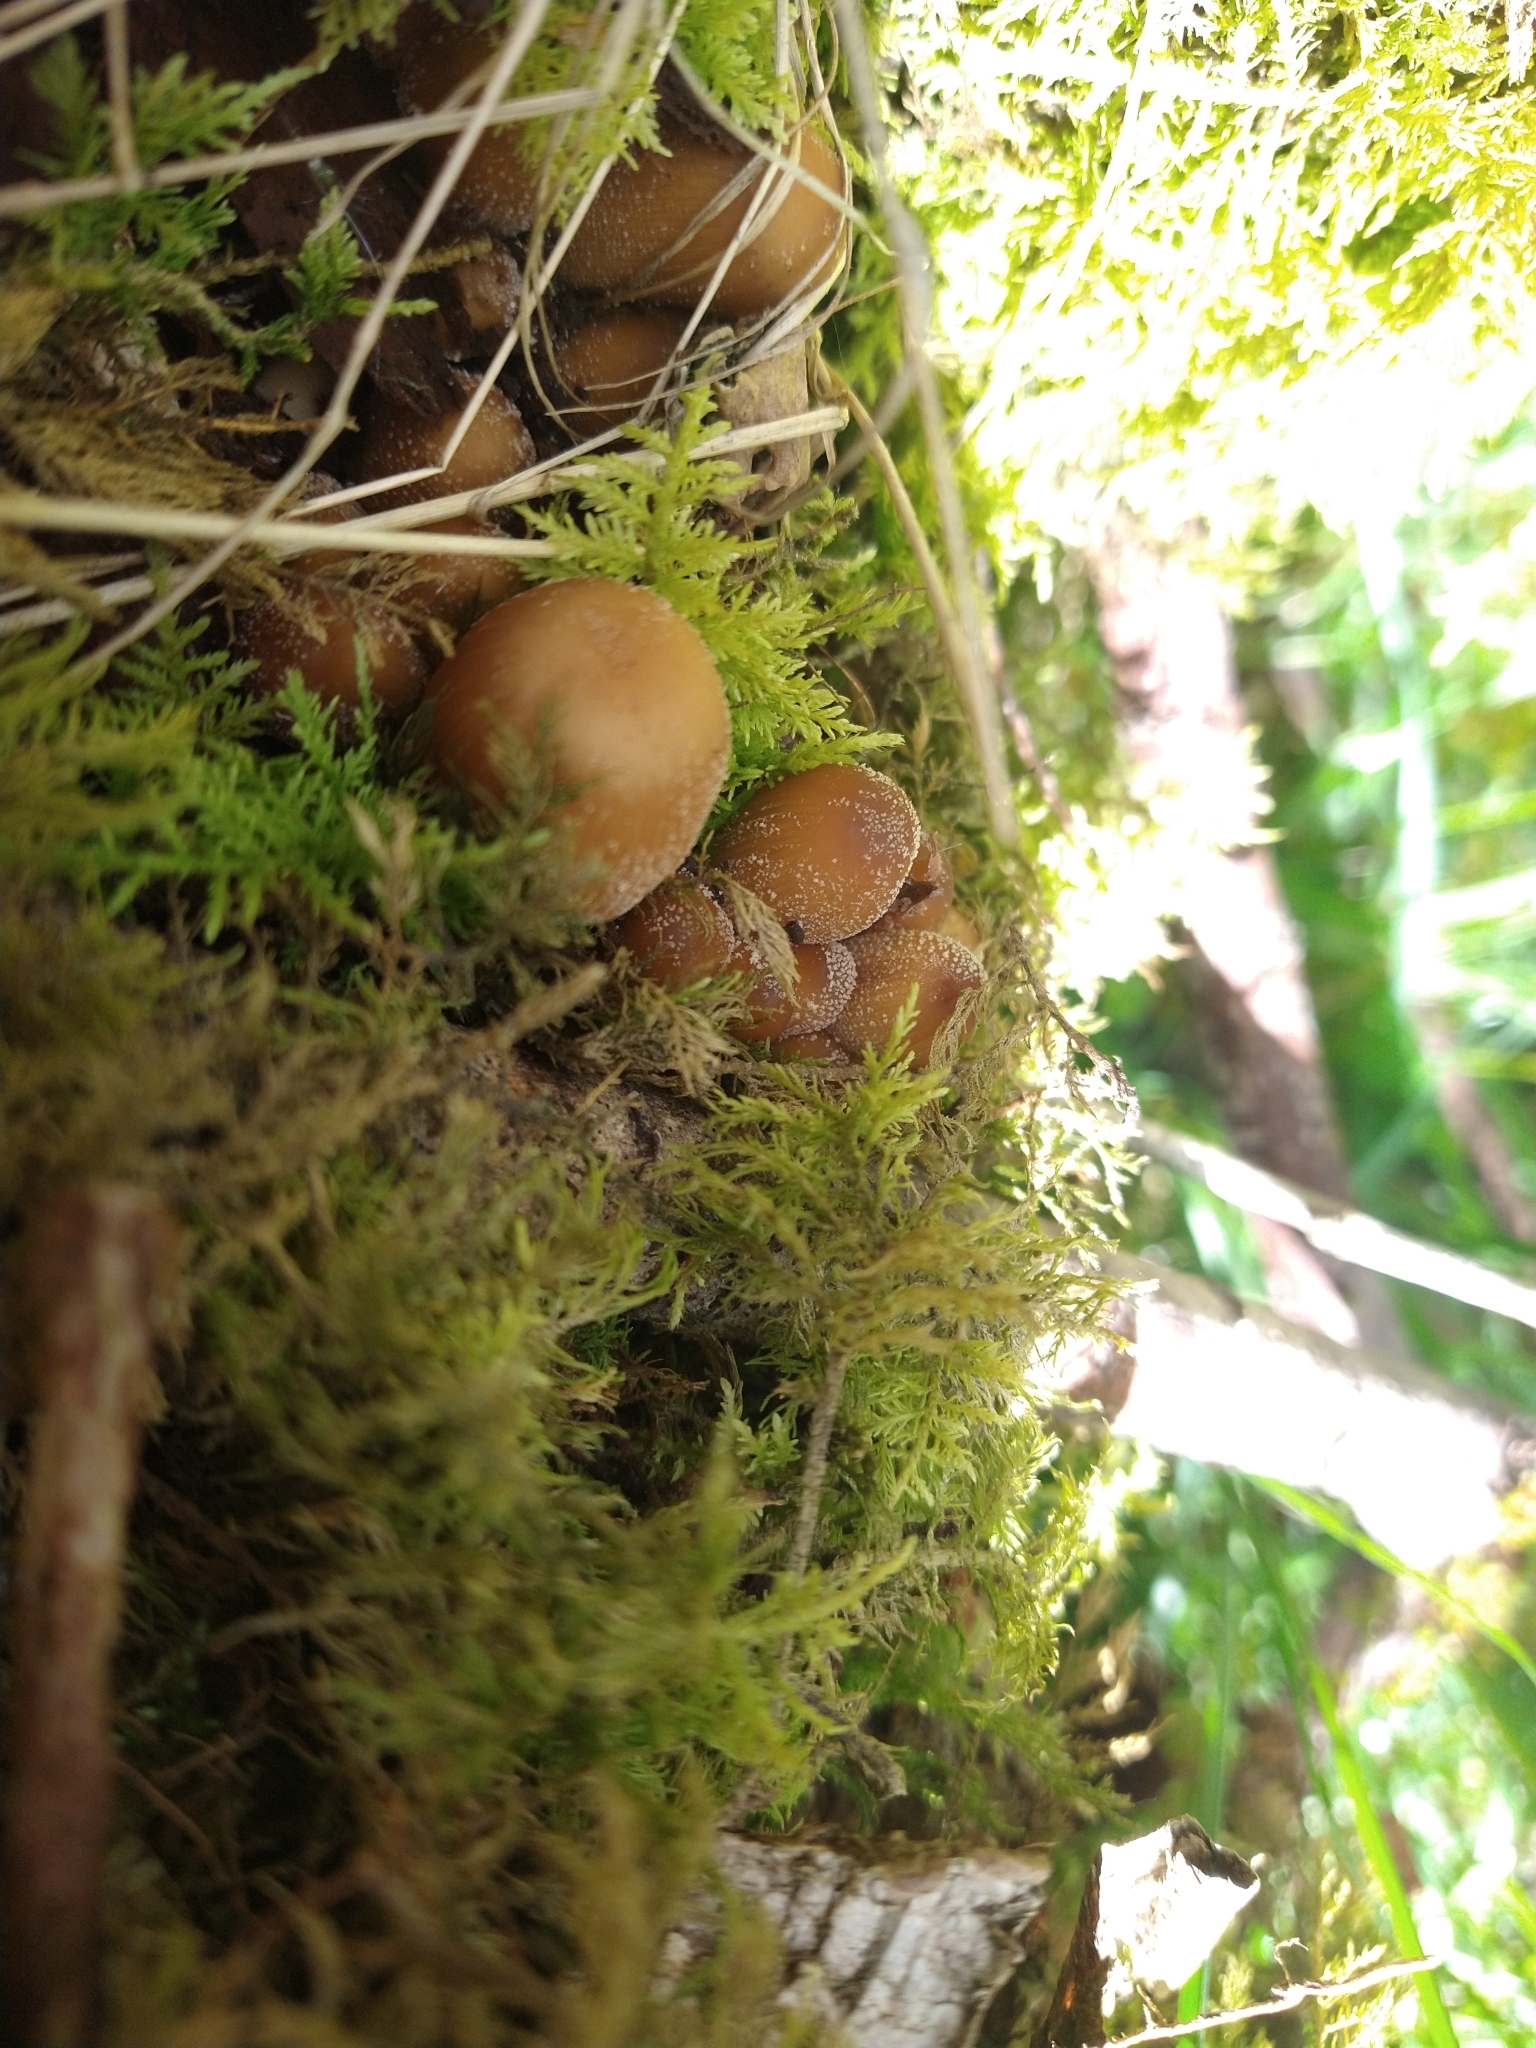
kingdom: Fungi
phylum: Basidiomycota
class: Agaricomycetes
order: Agaricales
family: Psathyrellaceae
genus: Coprinellus
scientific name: Coprinellus micaceus
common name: Glistening ink-cap
